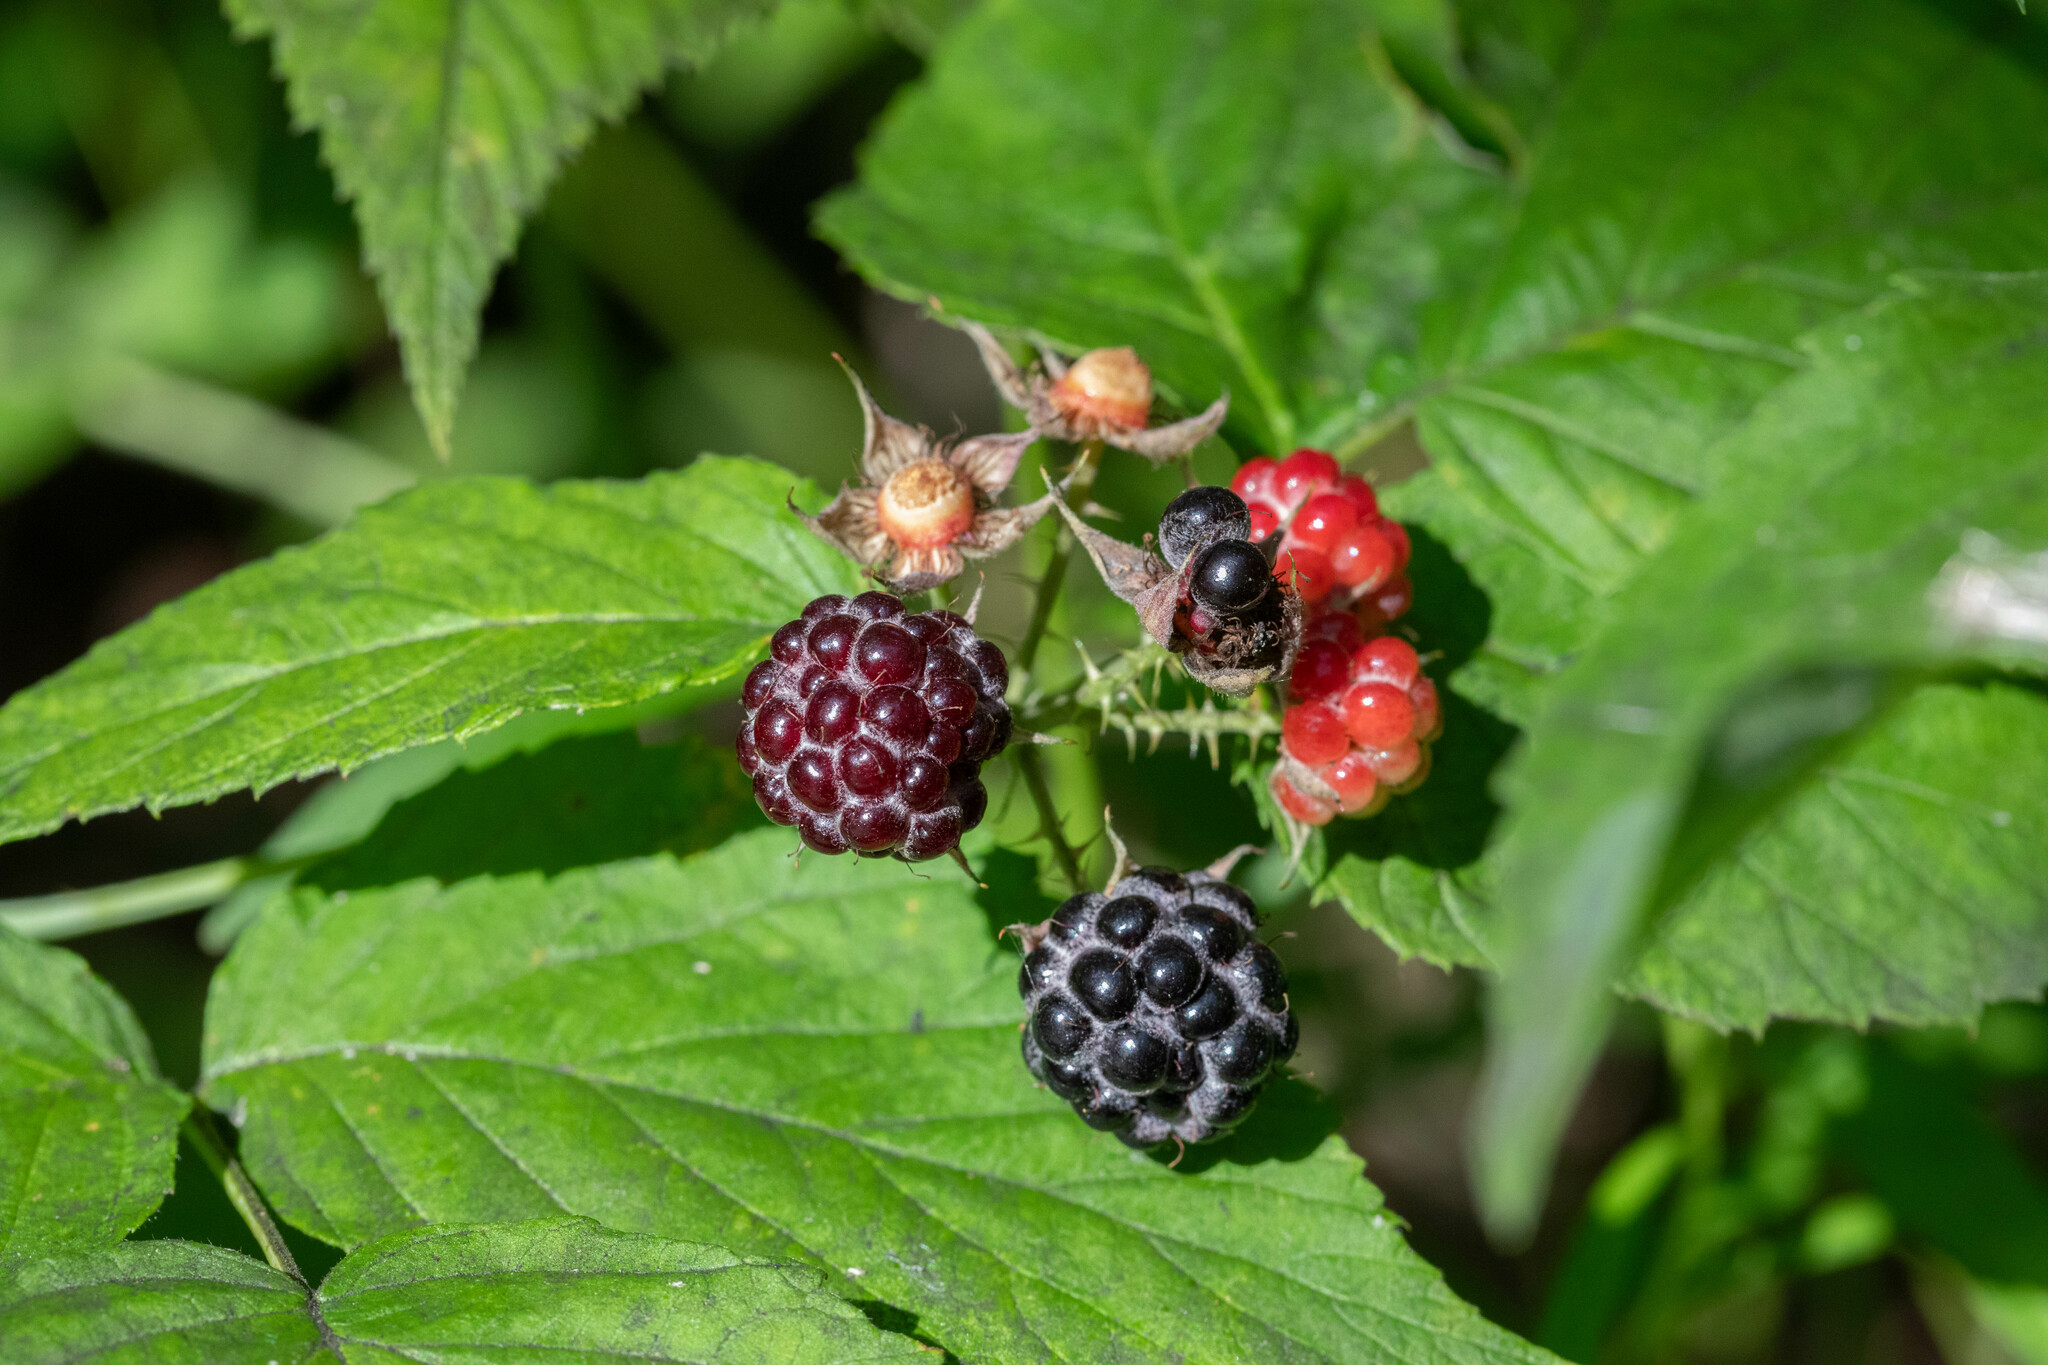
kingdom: Plantae
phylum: Tracheophyta
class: Magnoliopsida
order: Rosales
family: Rosaceae
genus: Rubus
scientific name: Rubus occidentalis
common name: Black raspberry
